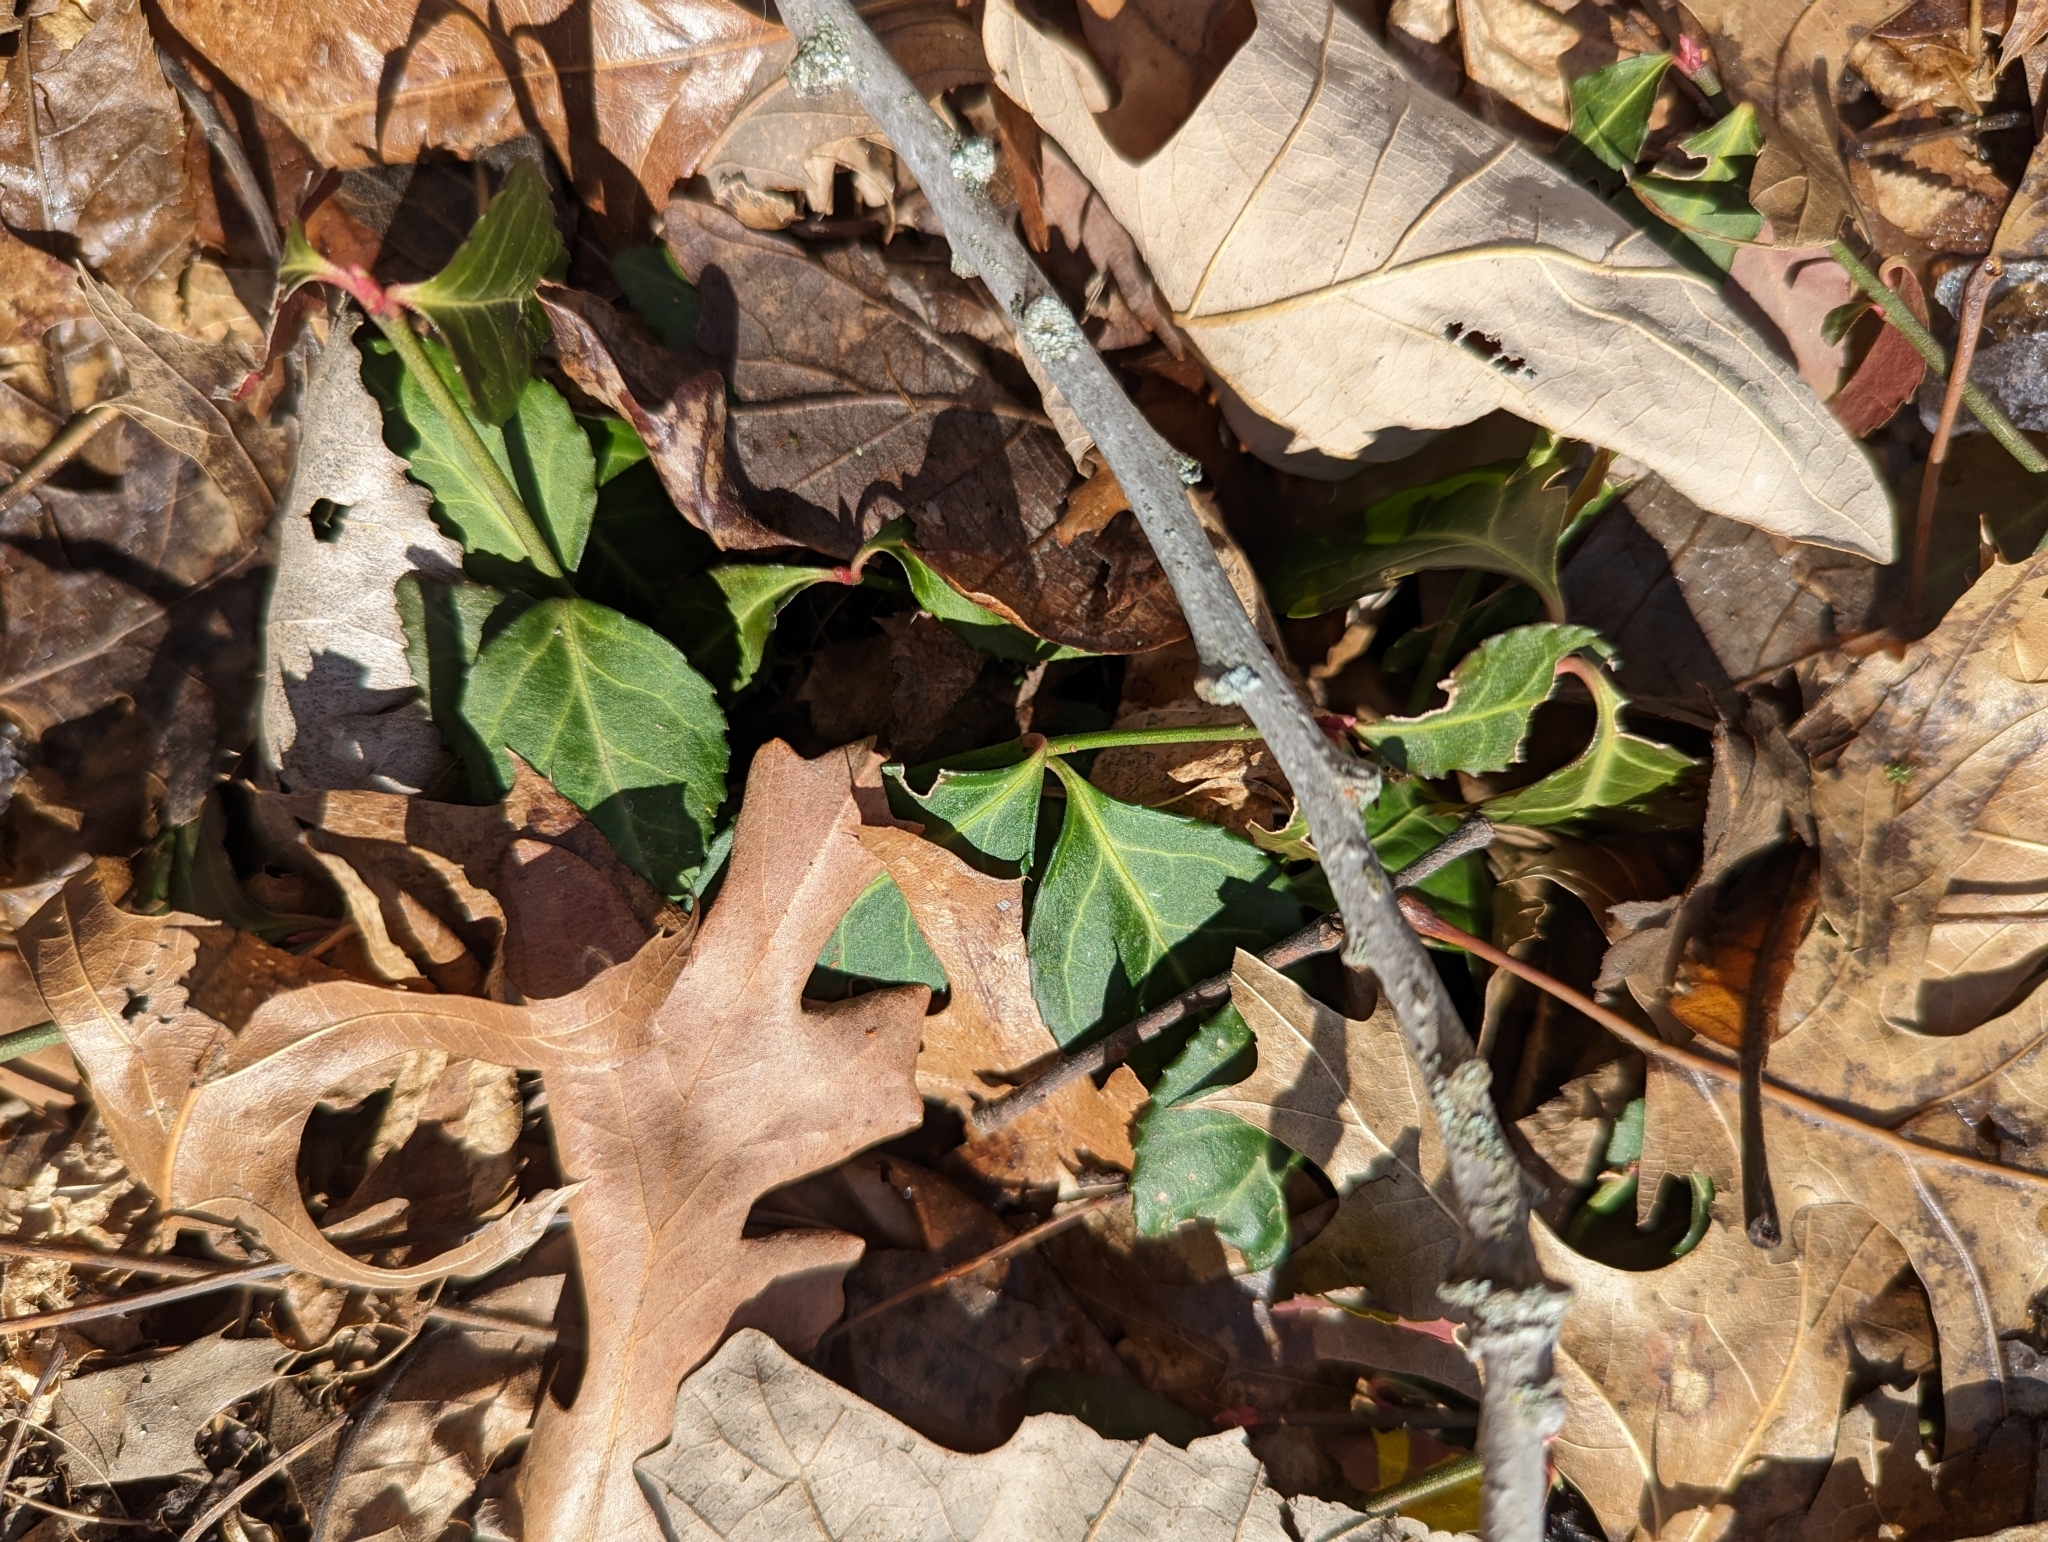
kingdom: Plantae
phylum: Tracheophyta
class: Magnoliopsida
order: Celastrales
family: Celastraceae
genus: Euonymus
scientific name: Euonymus fortunei
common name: Climbing euonymus
